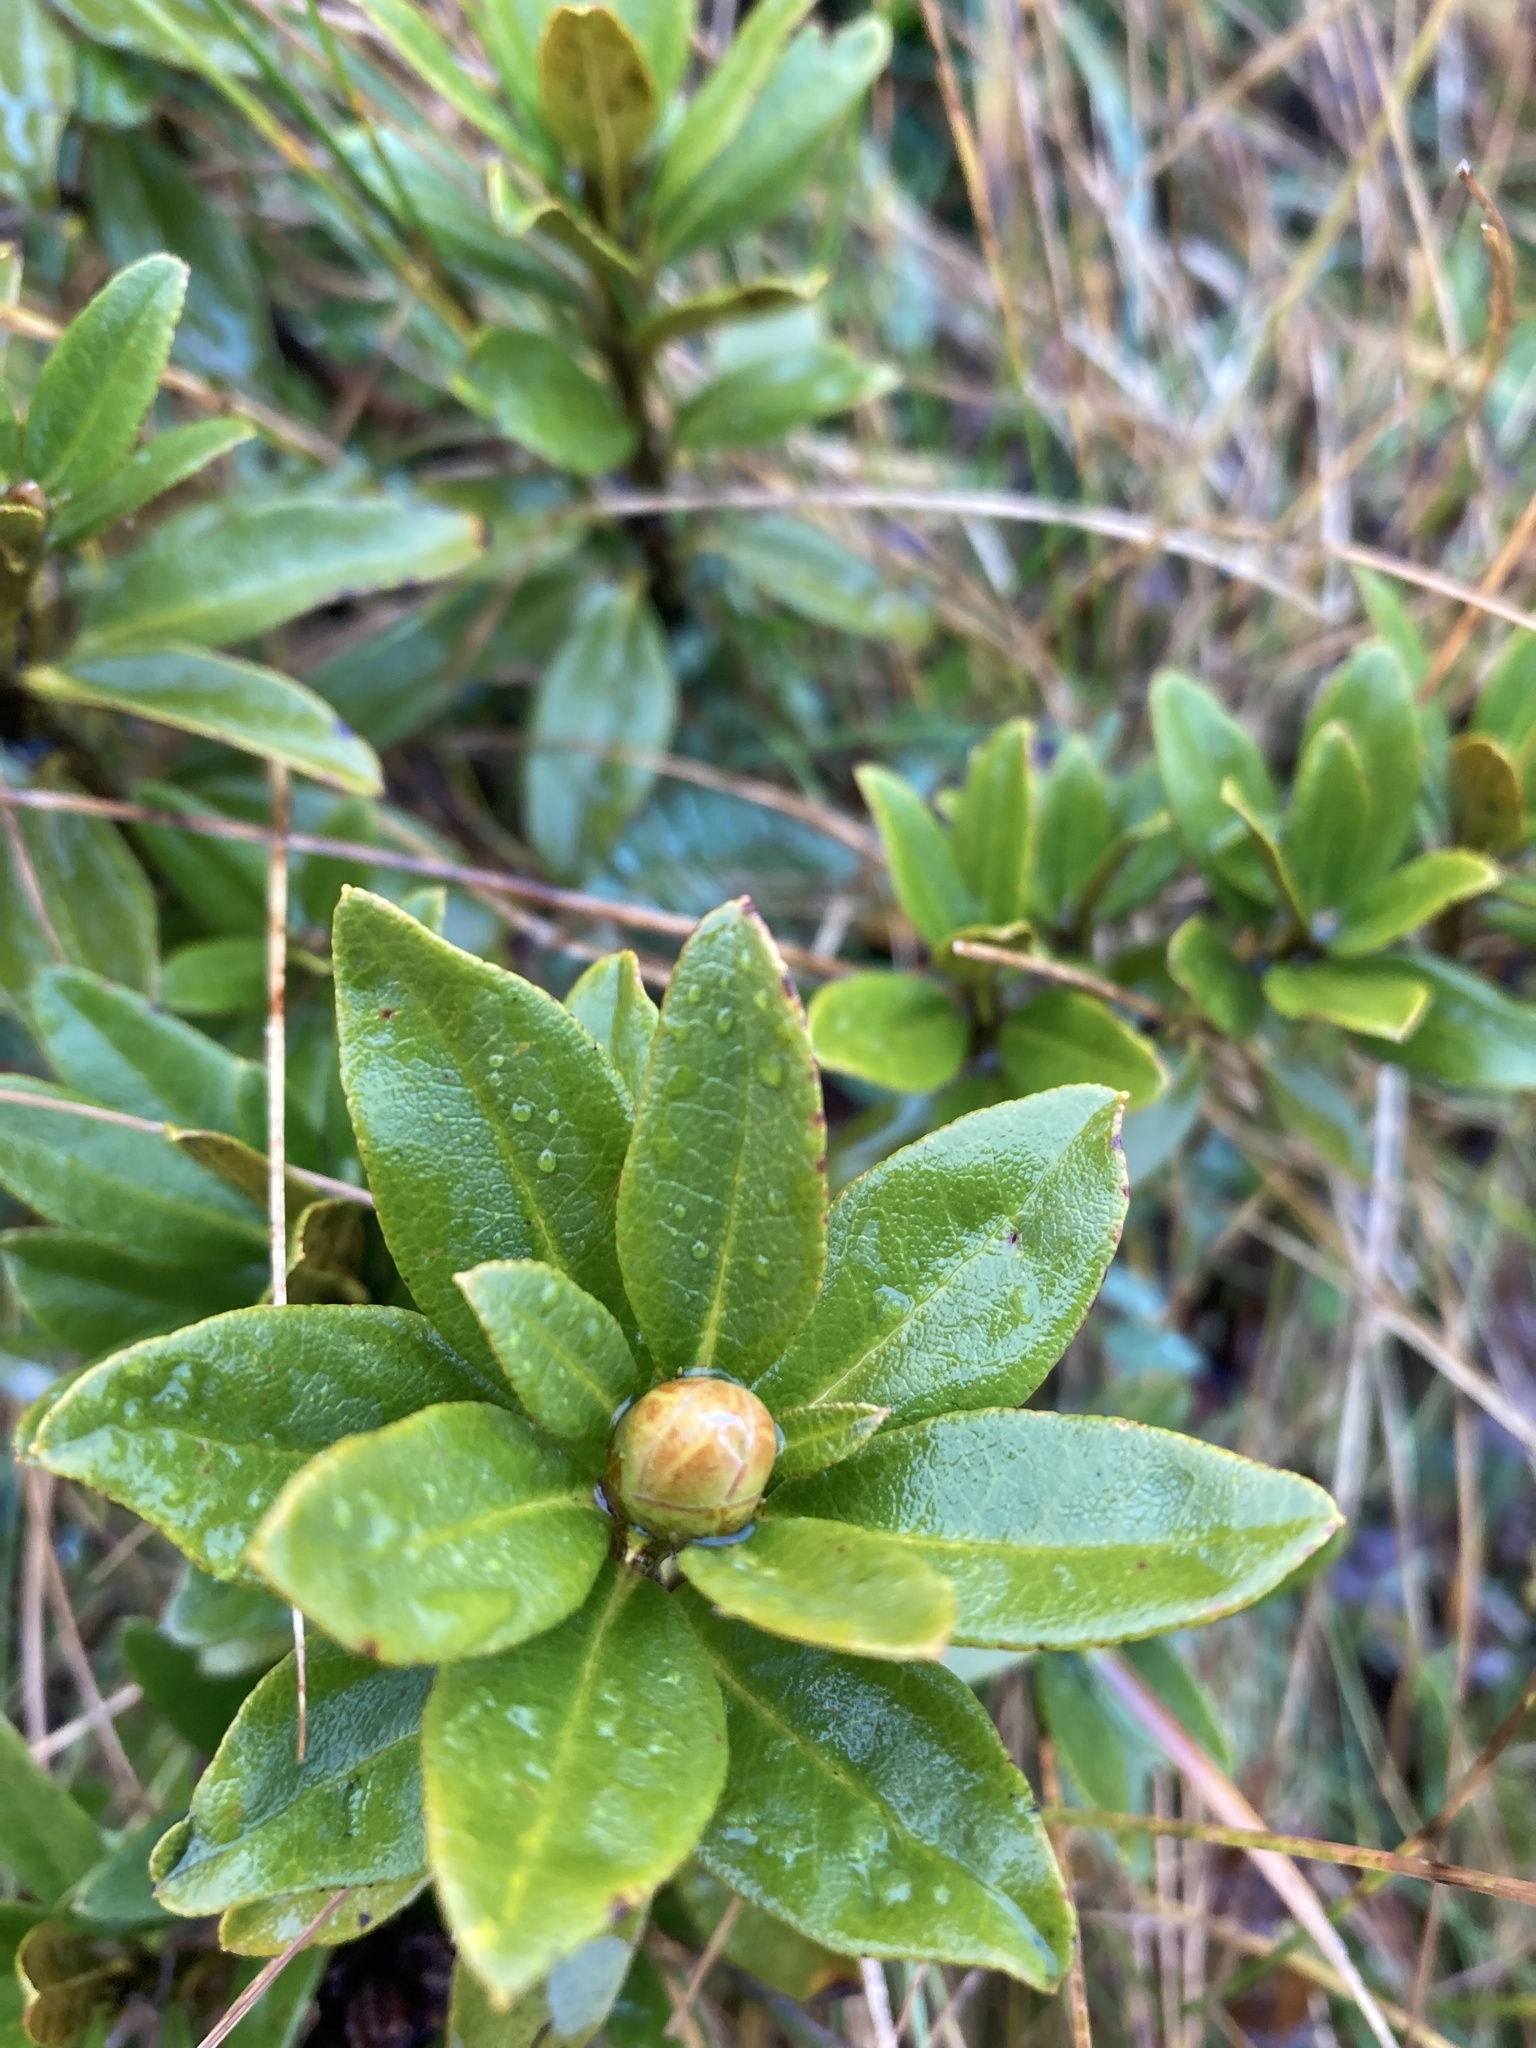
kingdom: Plantae
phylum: Tracheophyta
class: Magnoliopsida
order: Ericales
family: Ericaceae
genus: Rhododendron
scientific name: Rhododendron ferrugineum
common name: Alpenrose
